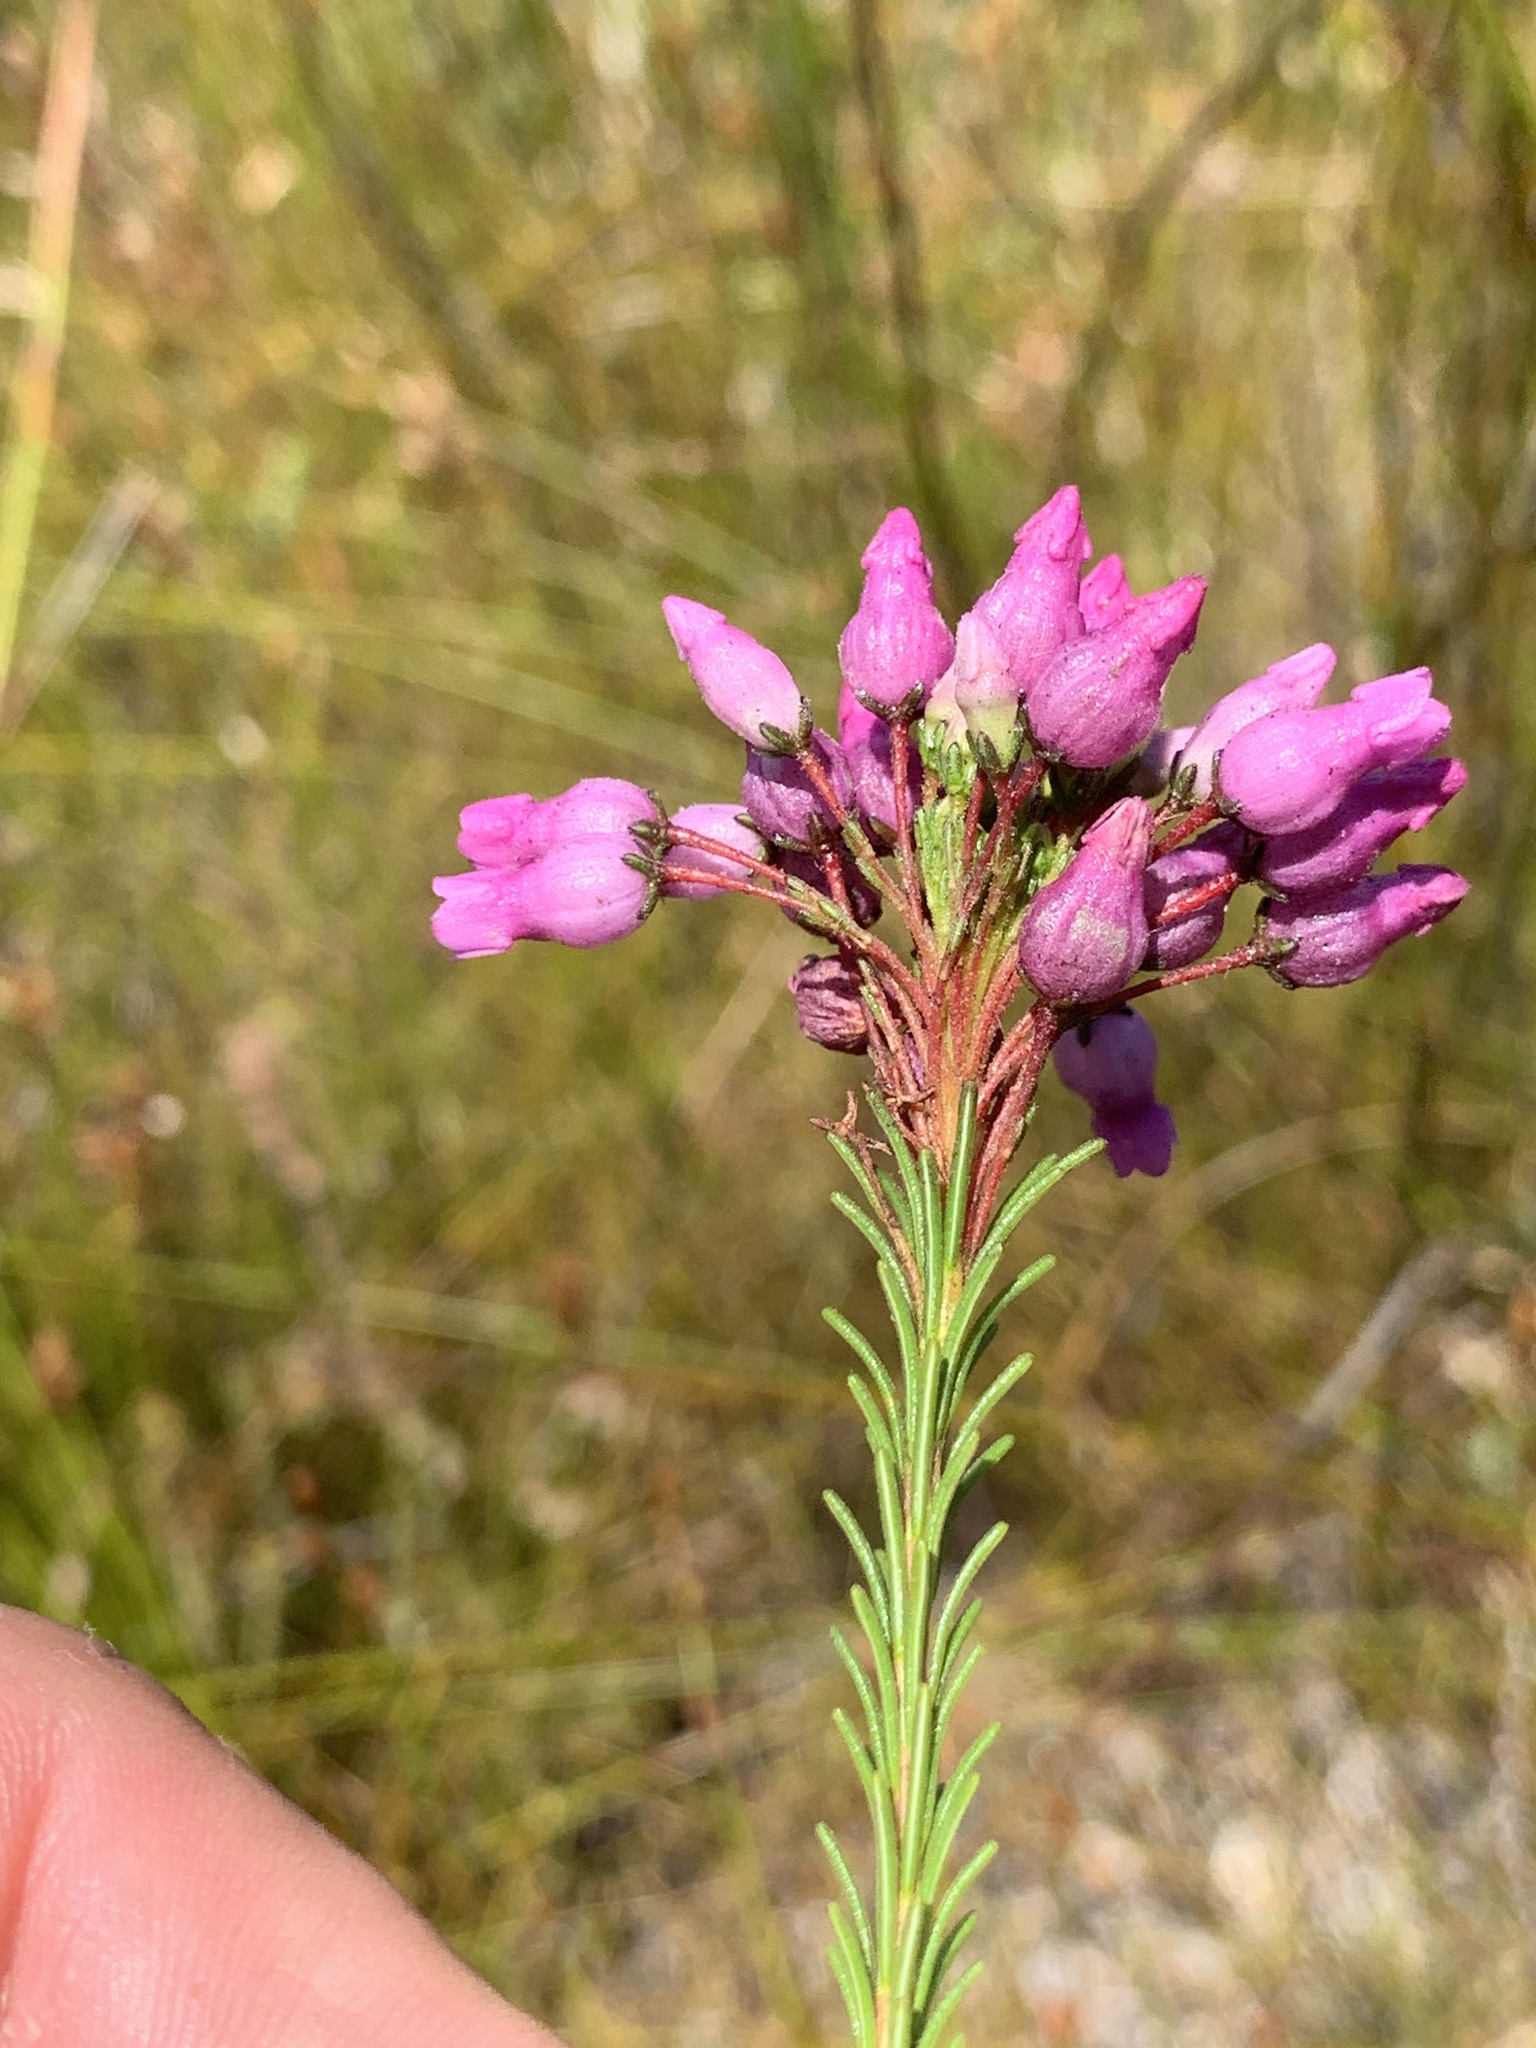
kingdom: Plantae
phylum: Tracheophyta
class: Magnoliopsida
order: Ericales
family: Ericaceae
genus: Erica
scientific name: Erica obliqua
